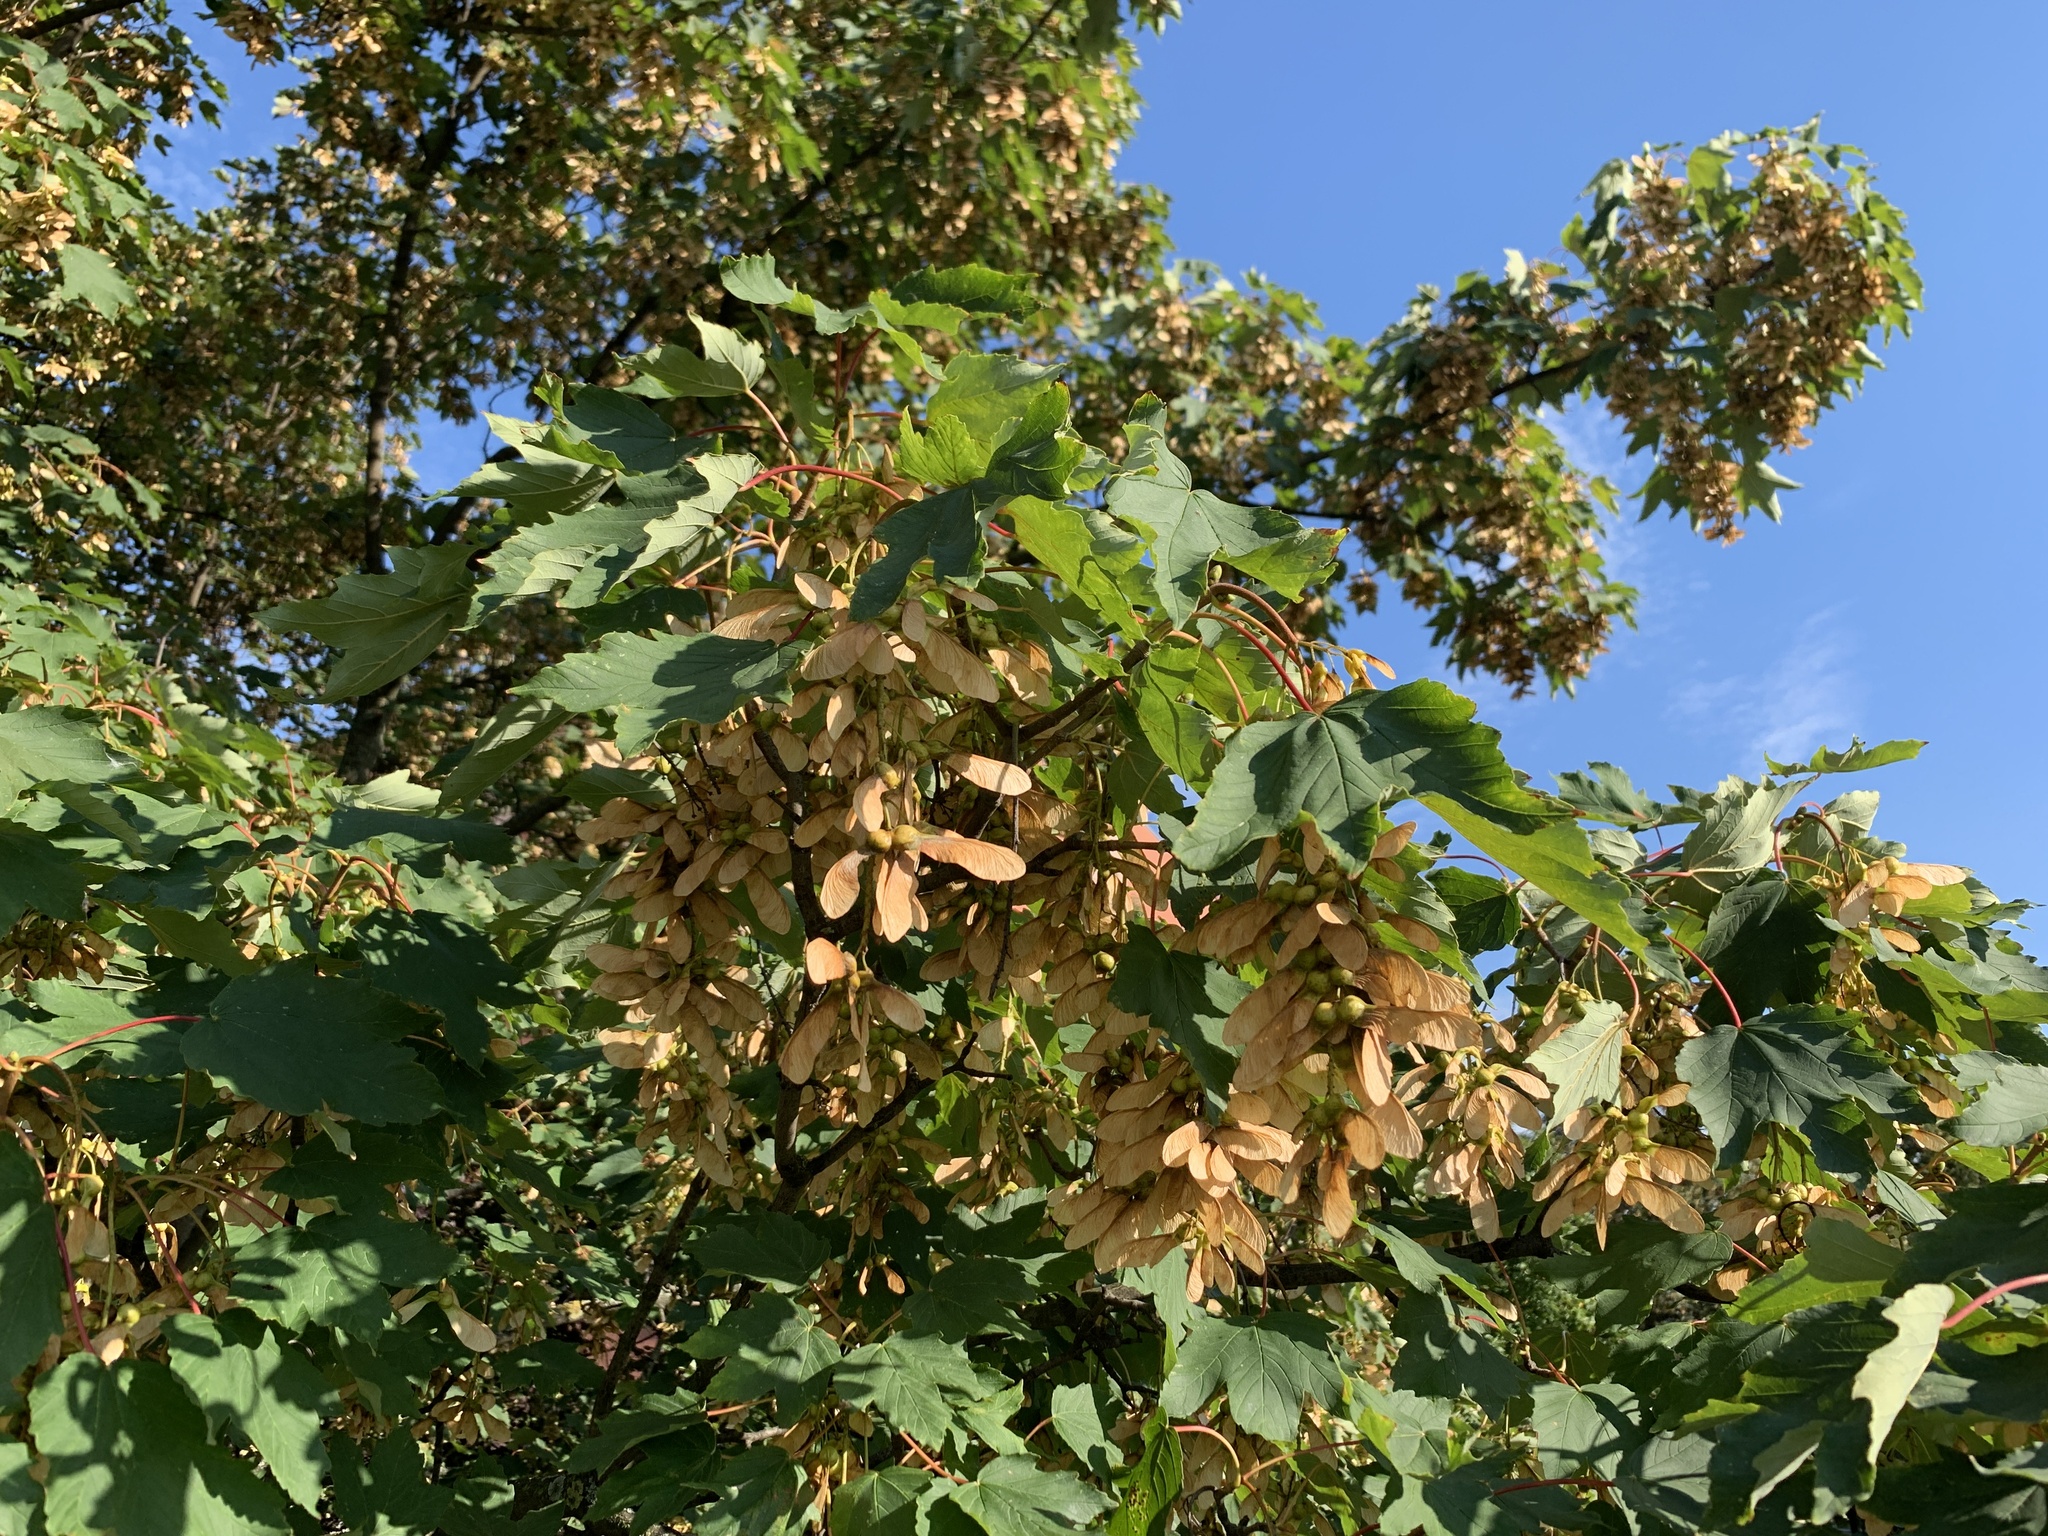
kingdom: Plantae
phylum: Tracheophyta
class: Magnoliopsida
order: Sapindales
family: Sapindaceae
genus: Acer
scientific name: Acer pseudoplatanus
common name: Sycamore
